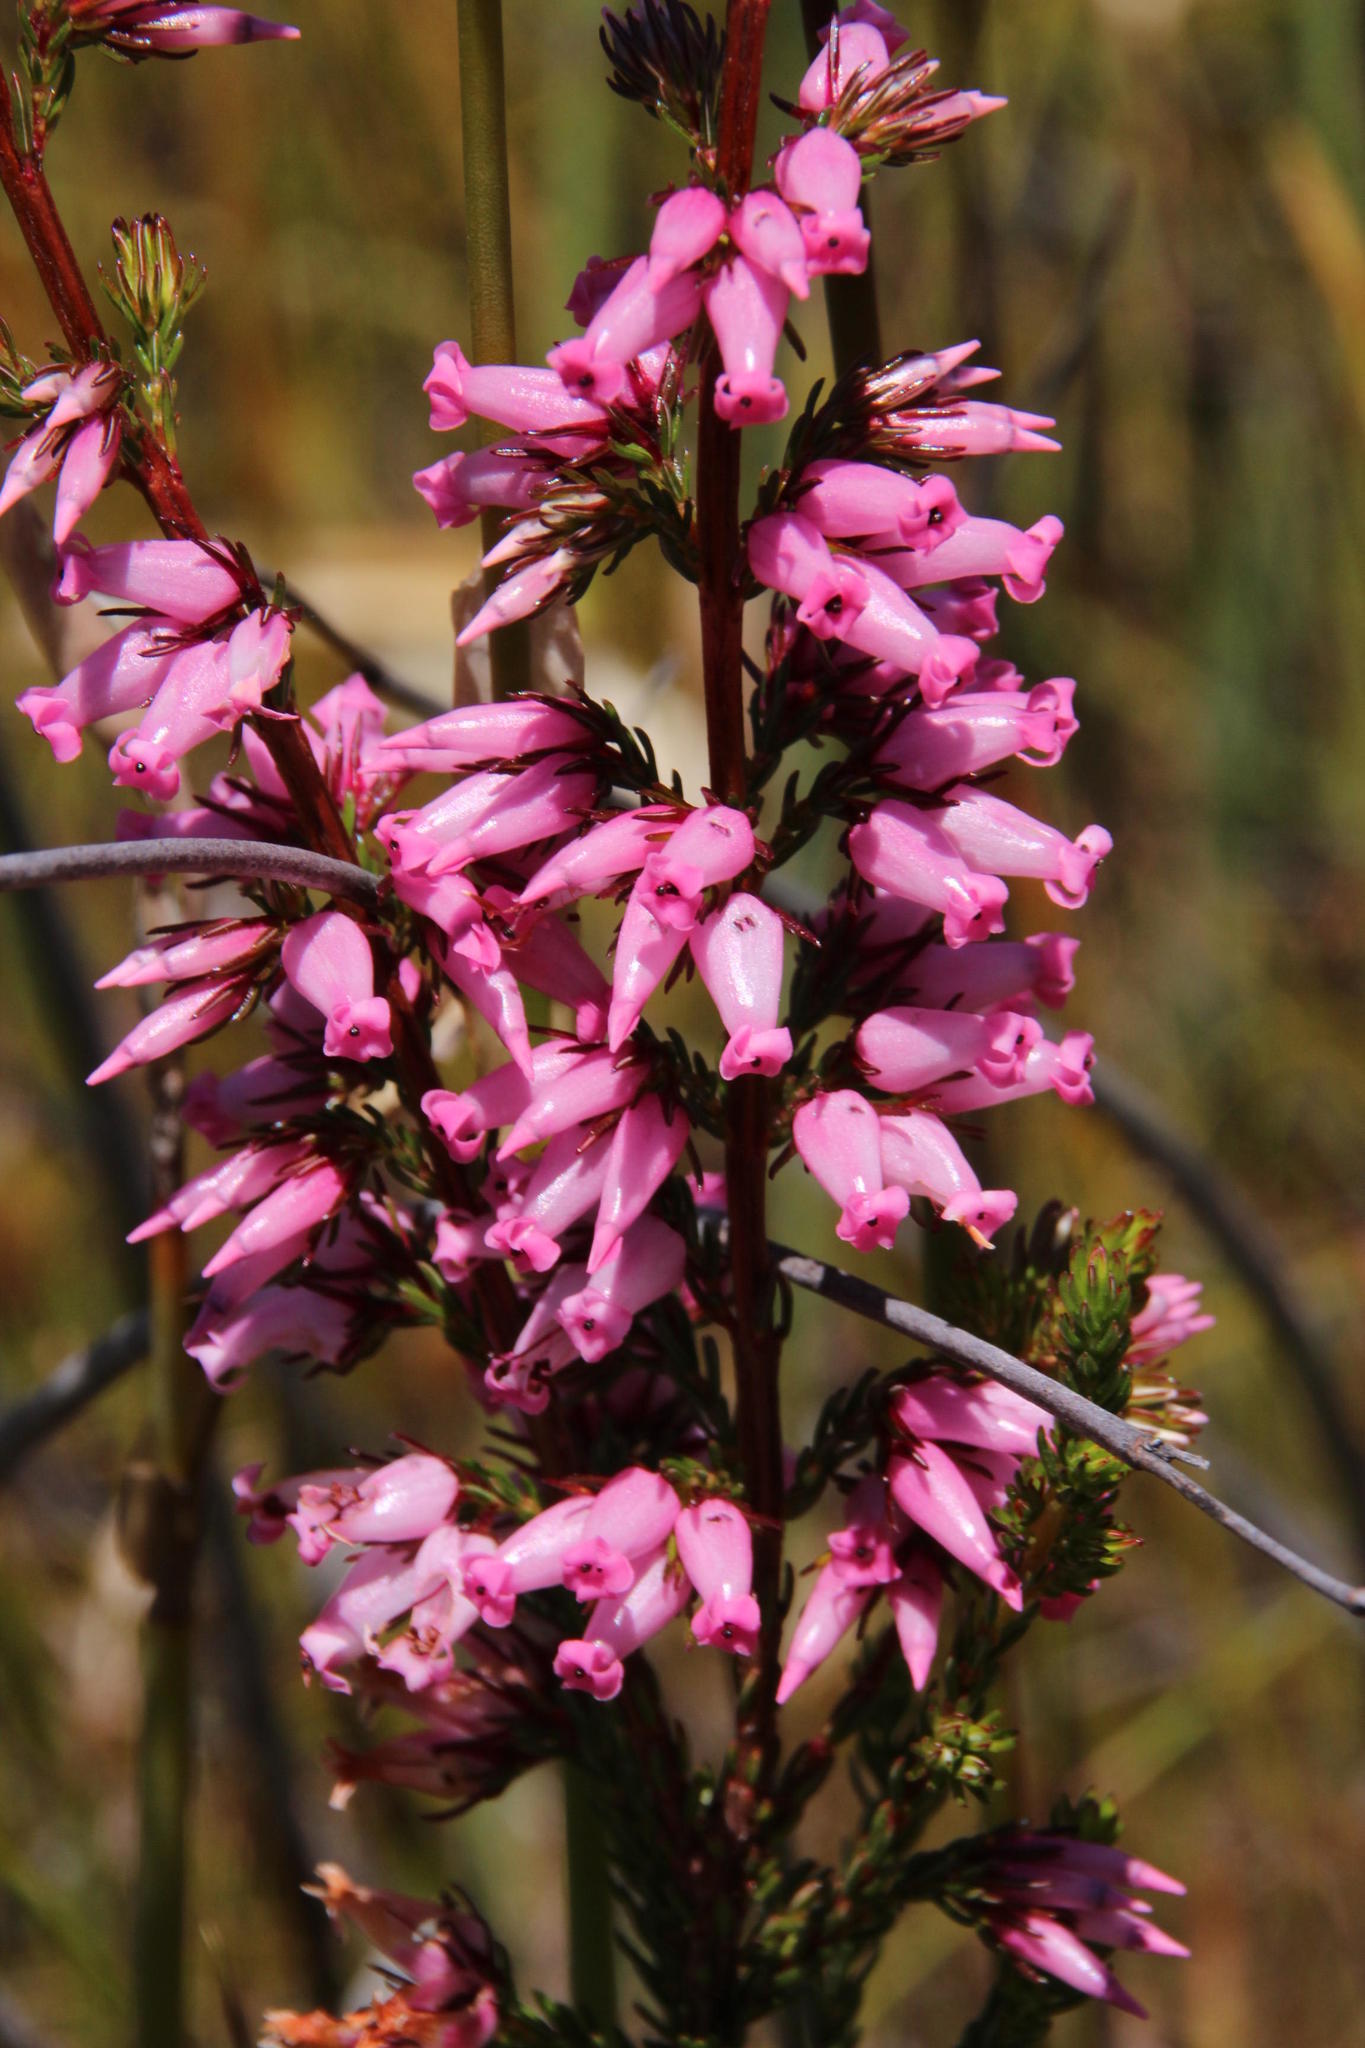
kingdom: Plantae
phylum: Tracheophyta
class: Magnoliopsida
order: Ericales
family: Ericaceae
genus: Erica
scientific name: Erica daphniflora
